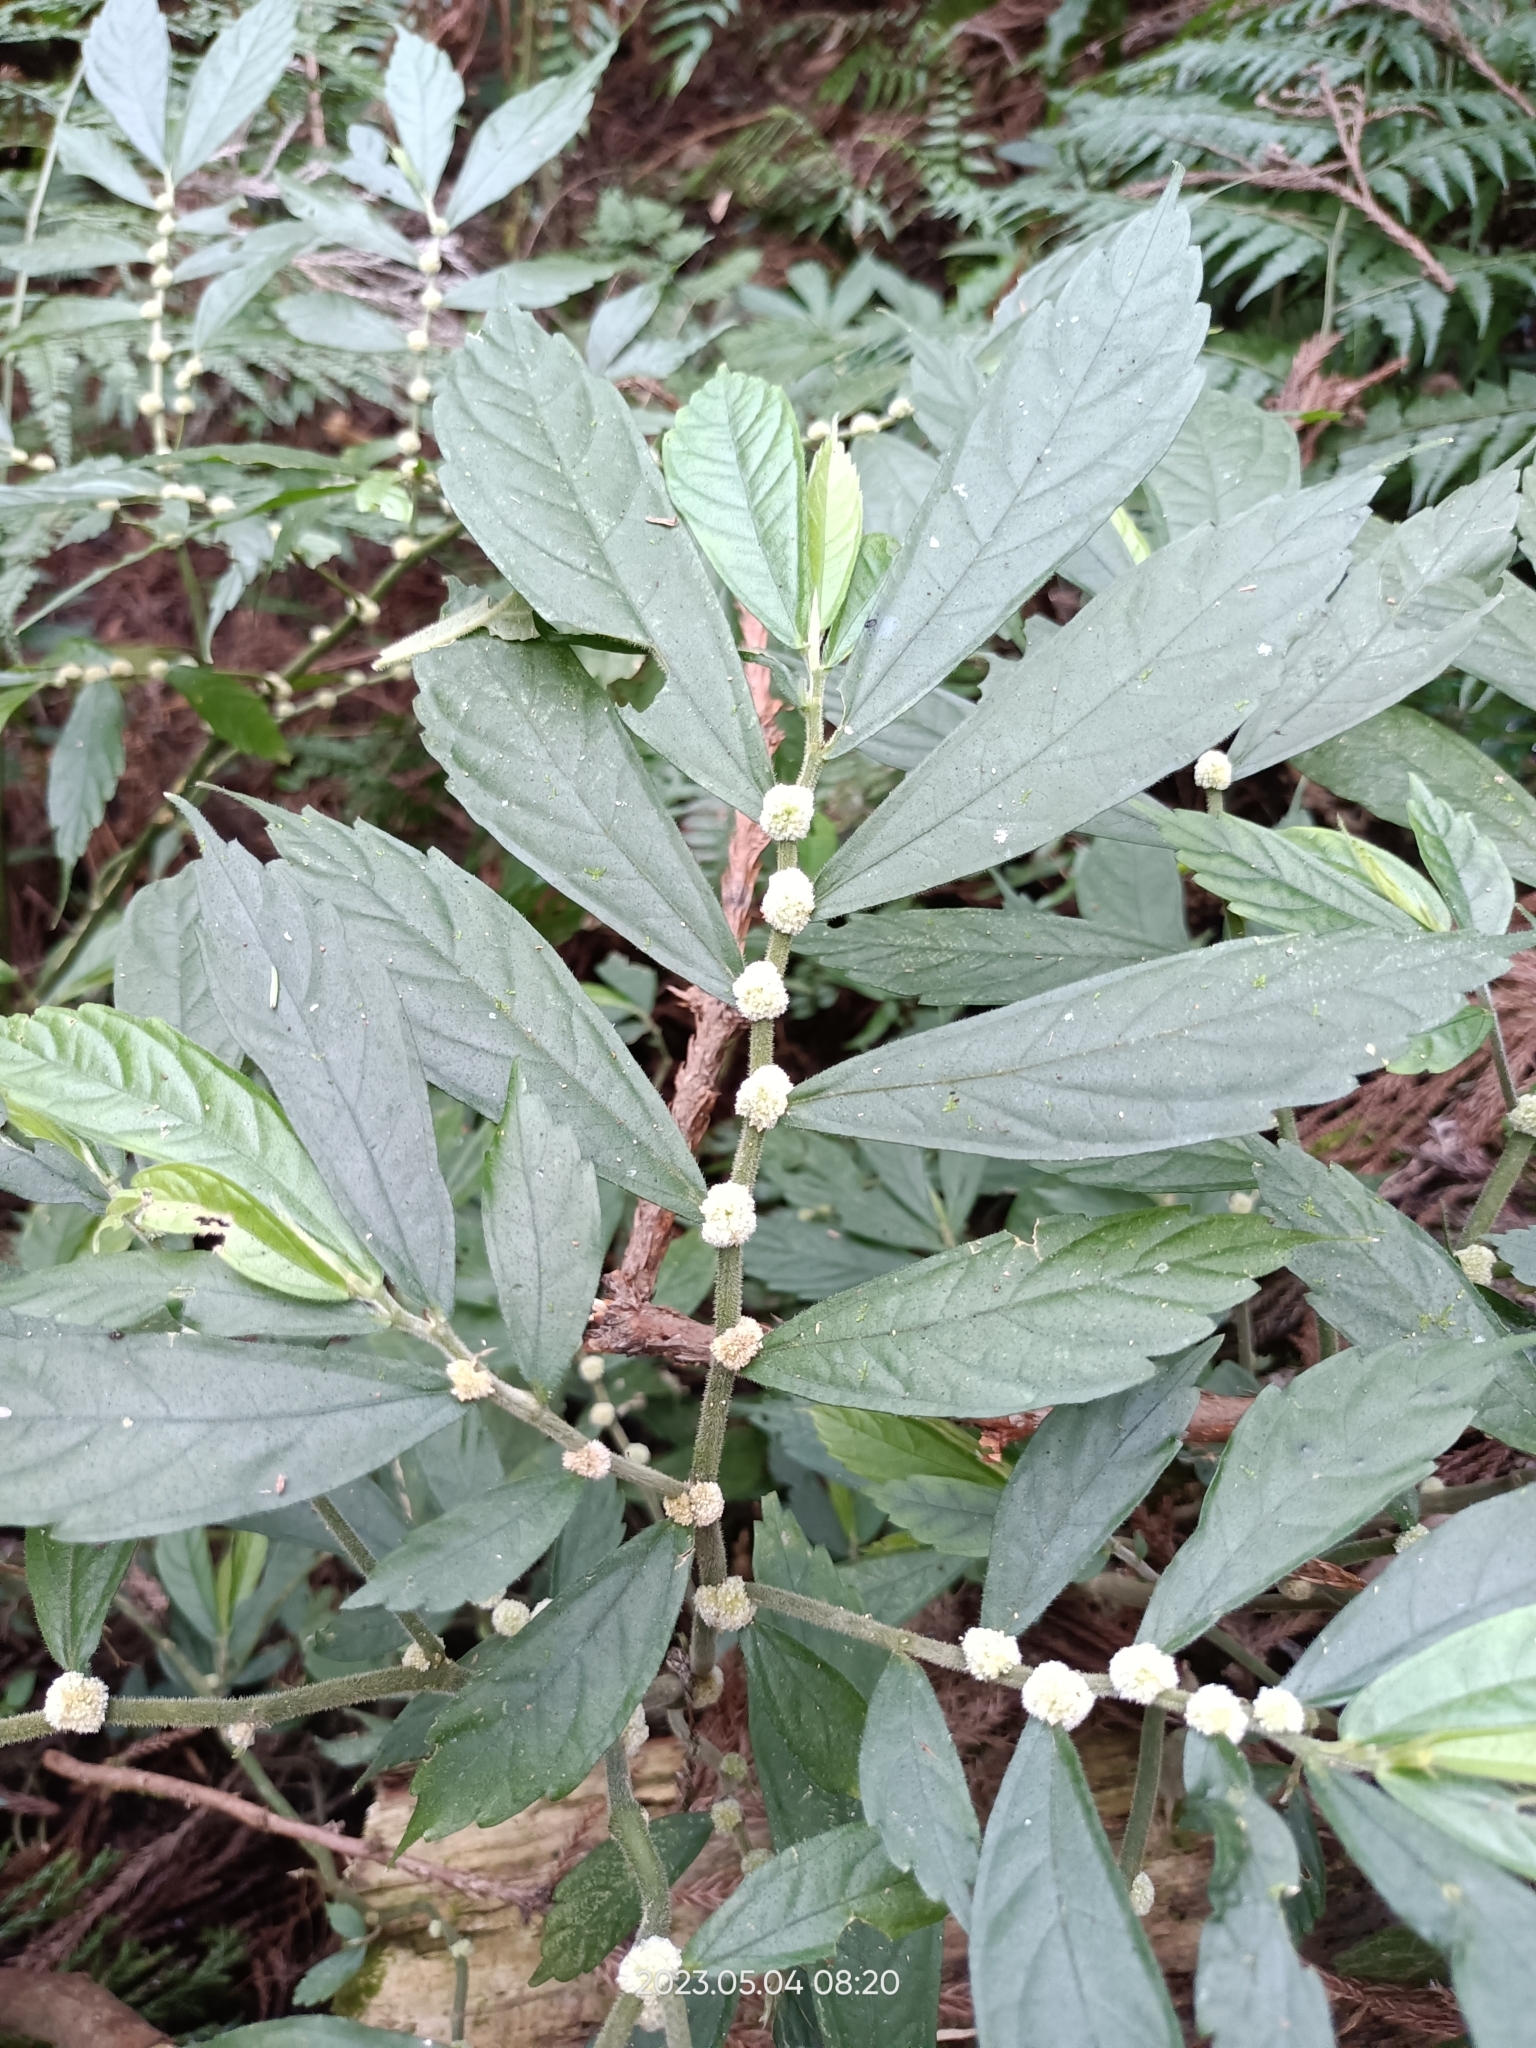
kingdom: Plantae
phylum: Tracheophyta
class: Magnoliopsida
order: Rosales
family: Urticaceae
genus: Elatostema
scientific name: Elatostema lineolatum
